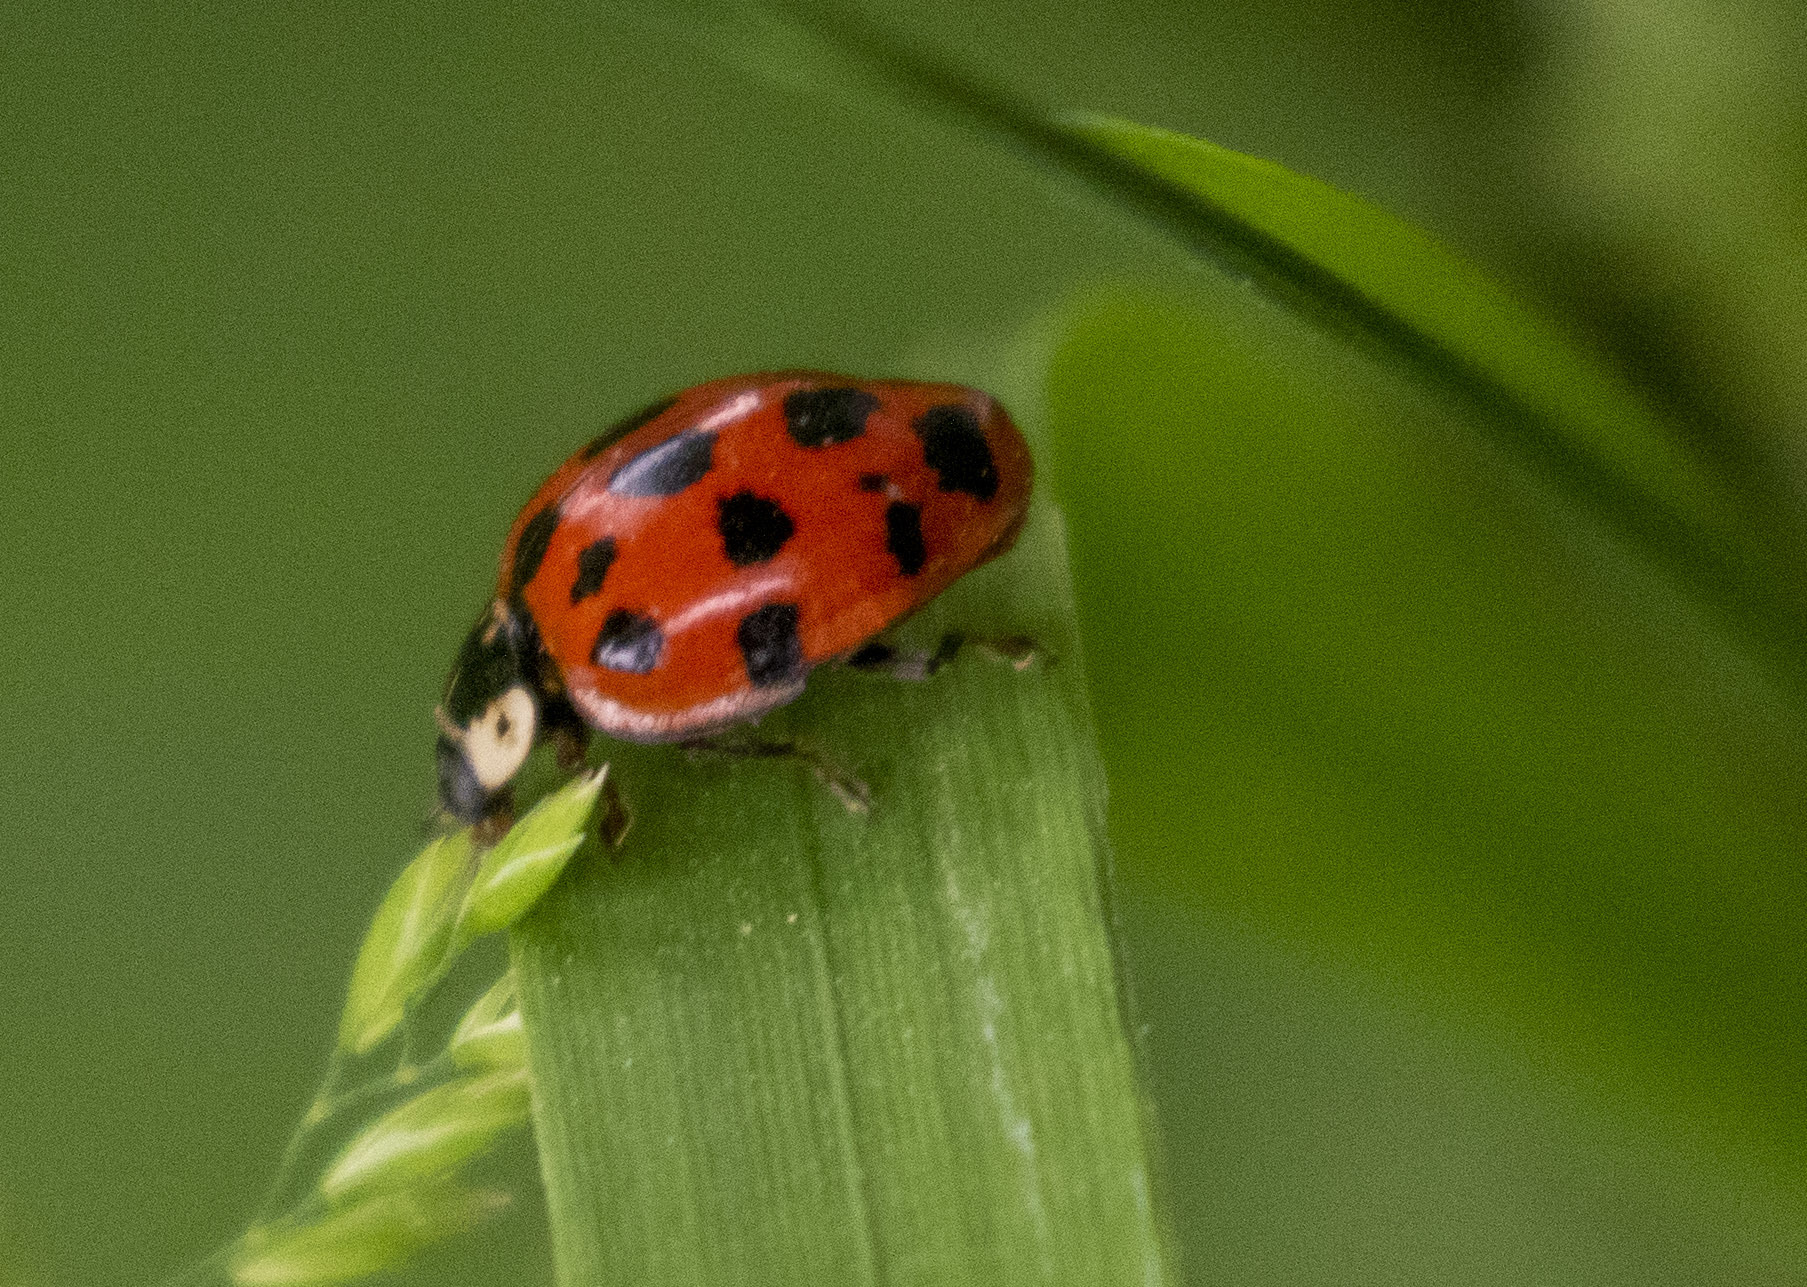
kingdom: Animalia
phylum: Arthropoda
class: Insecta
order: Coleoptera
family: Coccinellidae
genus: Harmonia
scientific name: Harmonia axyridis
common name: Harlequin ladybird
